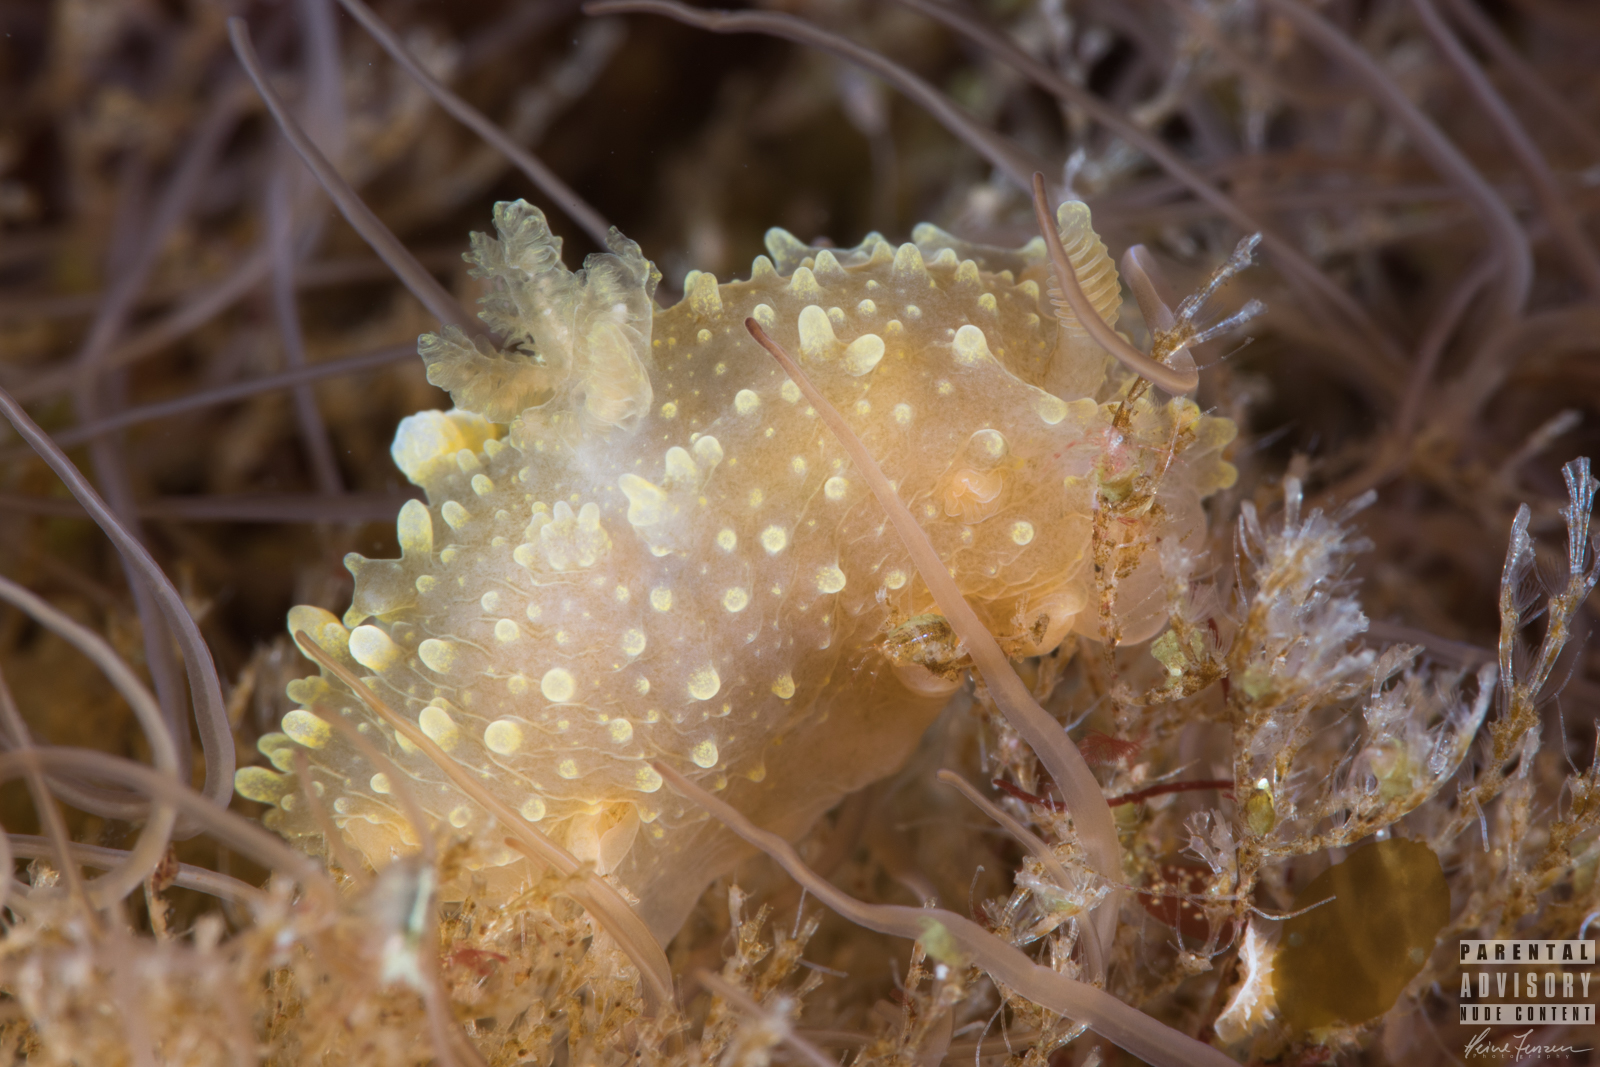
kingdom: Animalia
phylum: Mollusca
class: Gastropoda
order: Nudibranchia
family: Polyceridae
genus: Palio
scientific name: Palio dubia
